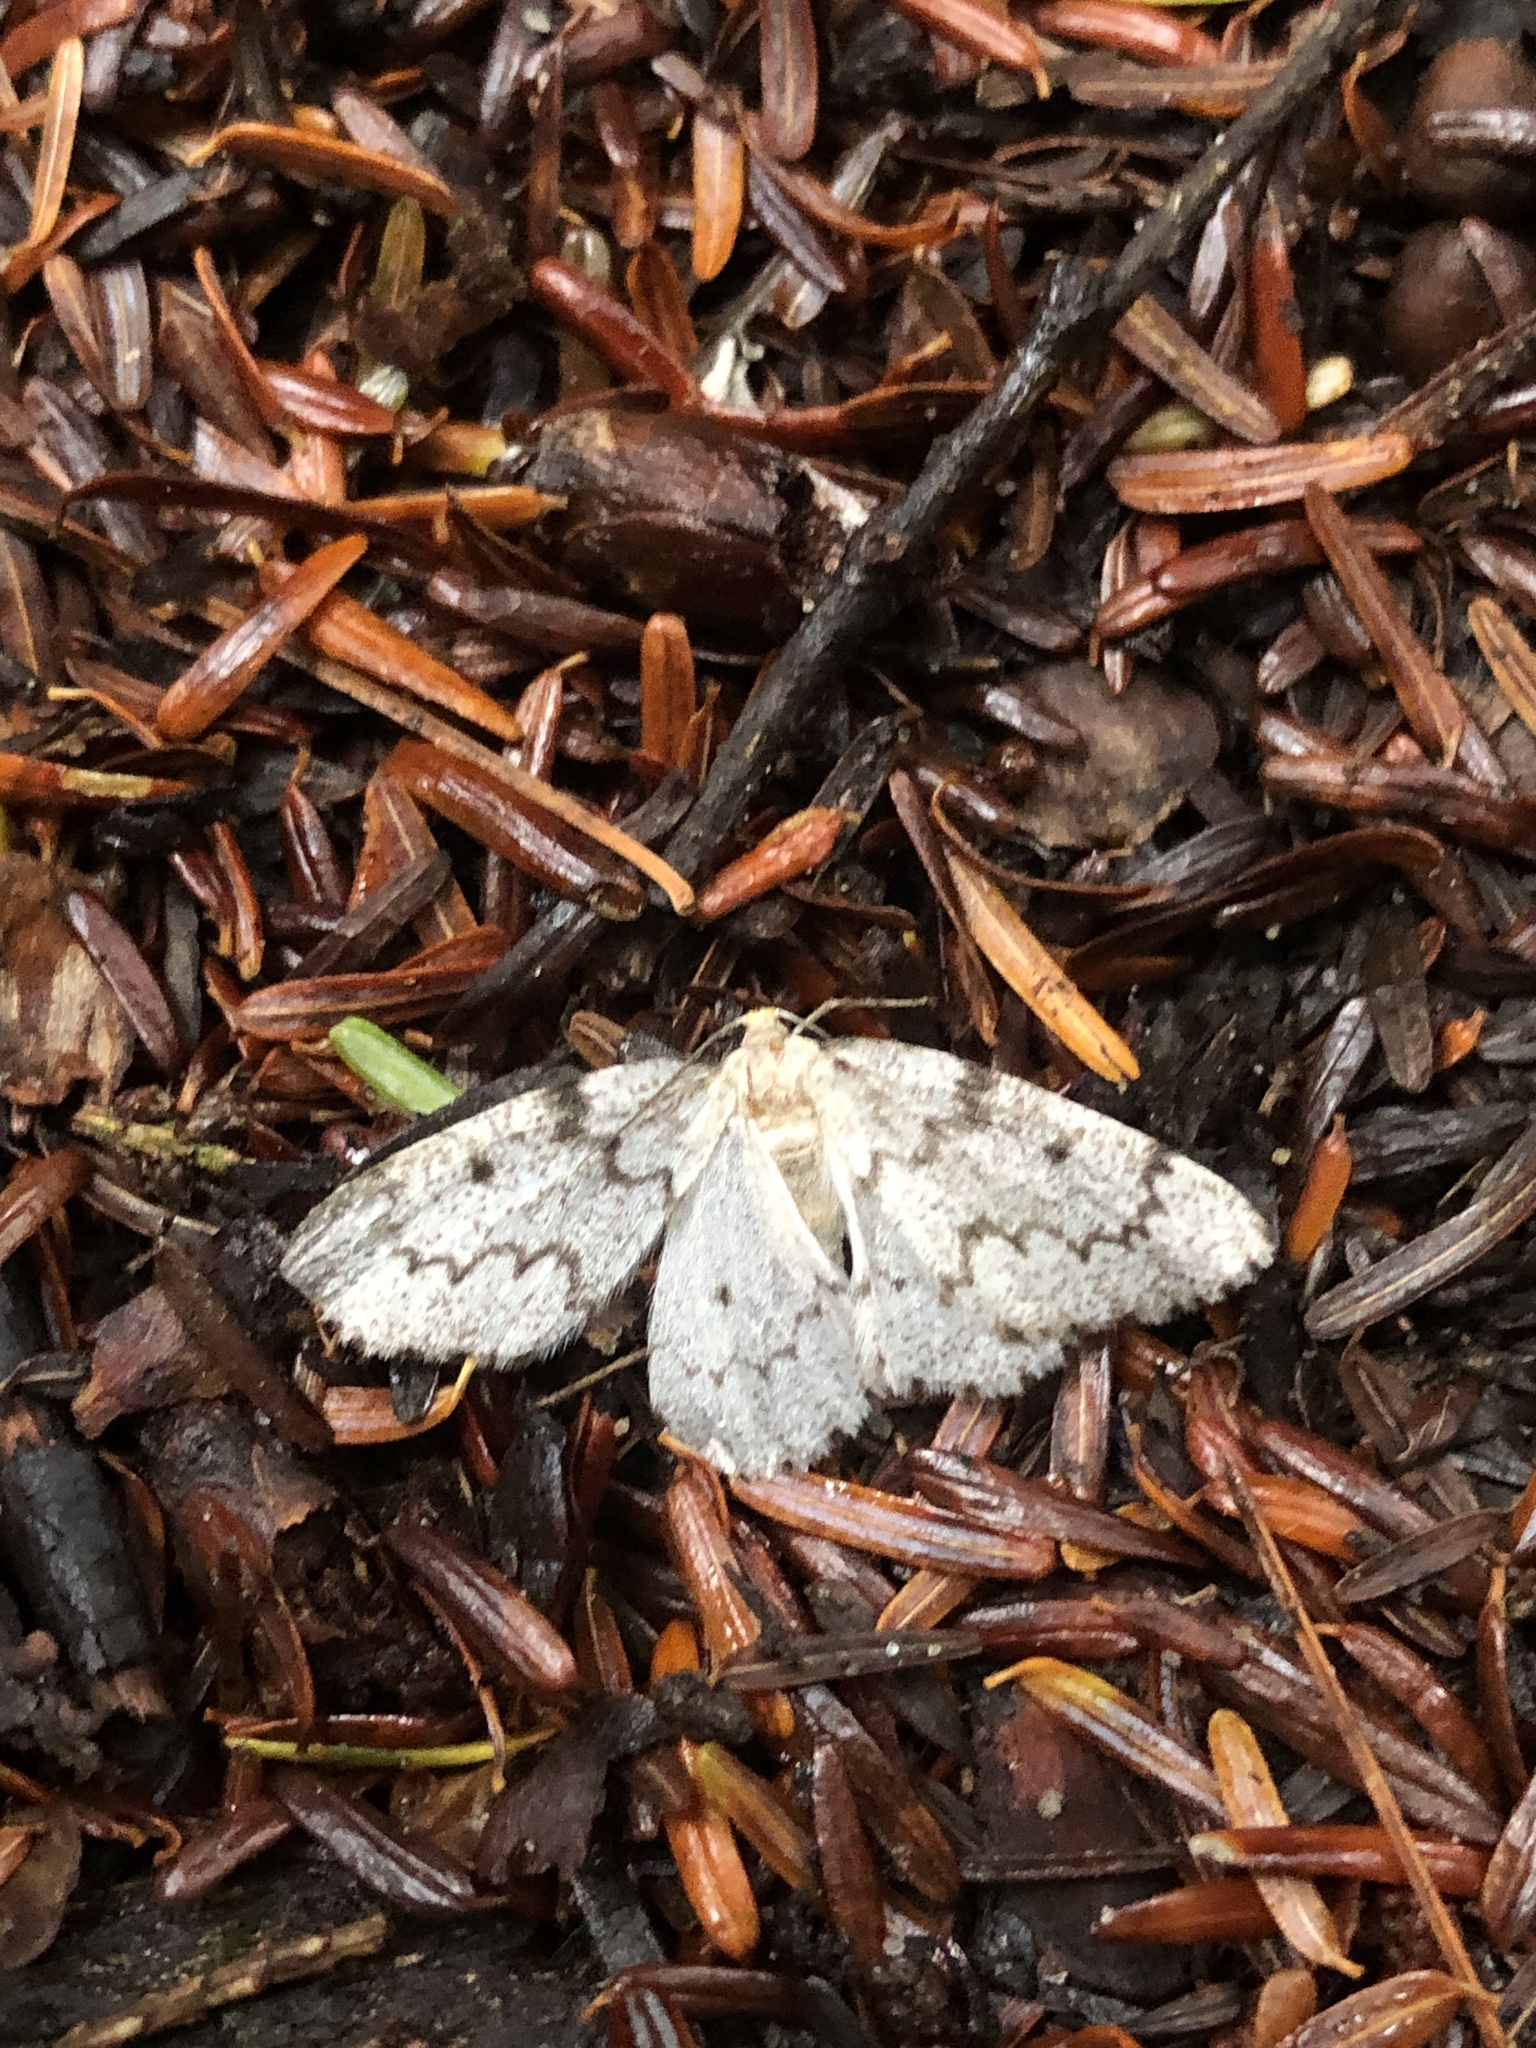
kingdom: Animalia
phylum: Arthropoda
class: Insecta
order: Lepidoptera
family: Geometridae
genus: Nepytia
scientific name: Nepytia canosaria
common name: False hemlock looper
